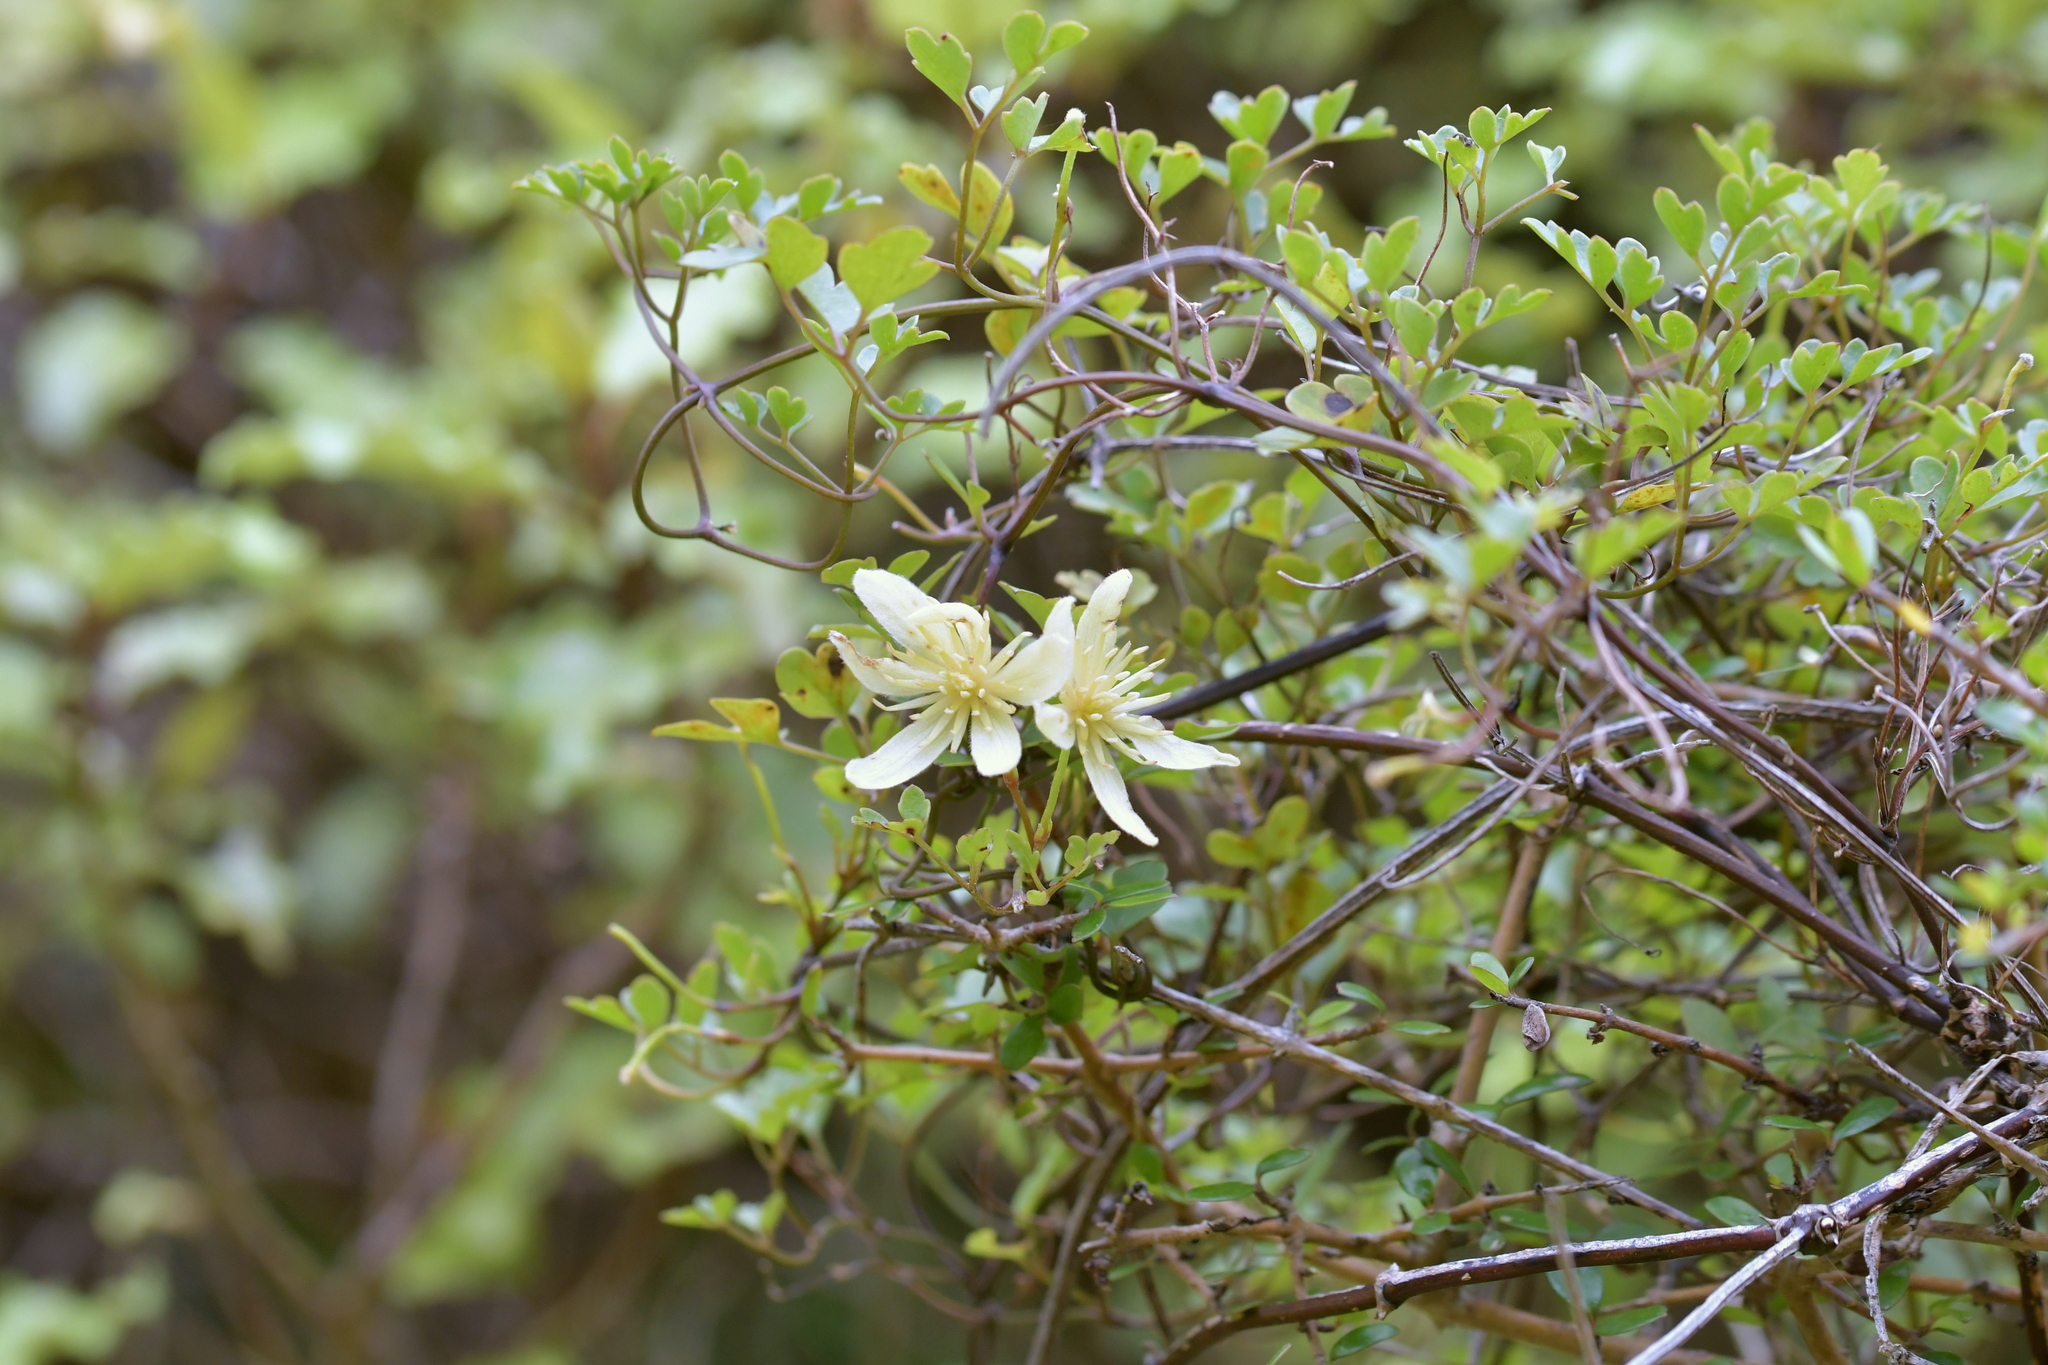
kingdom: Plantae
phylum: Tracheophyta
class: Magnoliopsida
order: Ranunculales
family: Ranunculaceae
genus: Clematis
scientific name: Clematis forsteri
